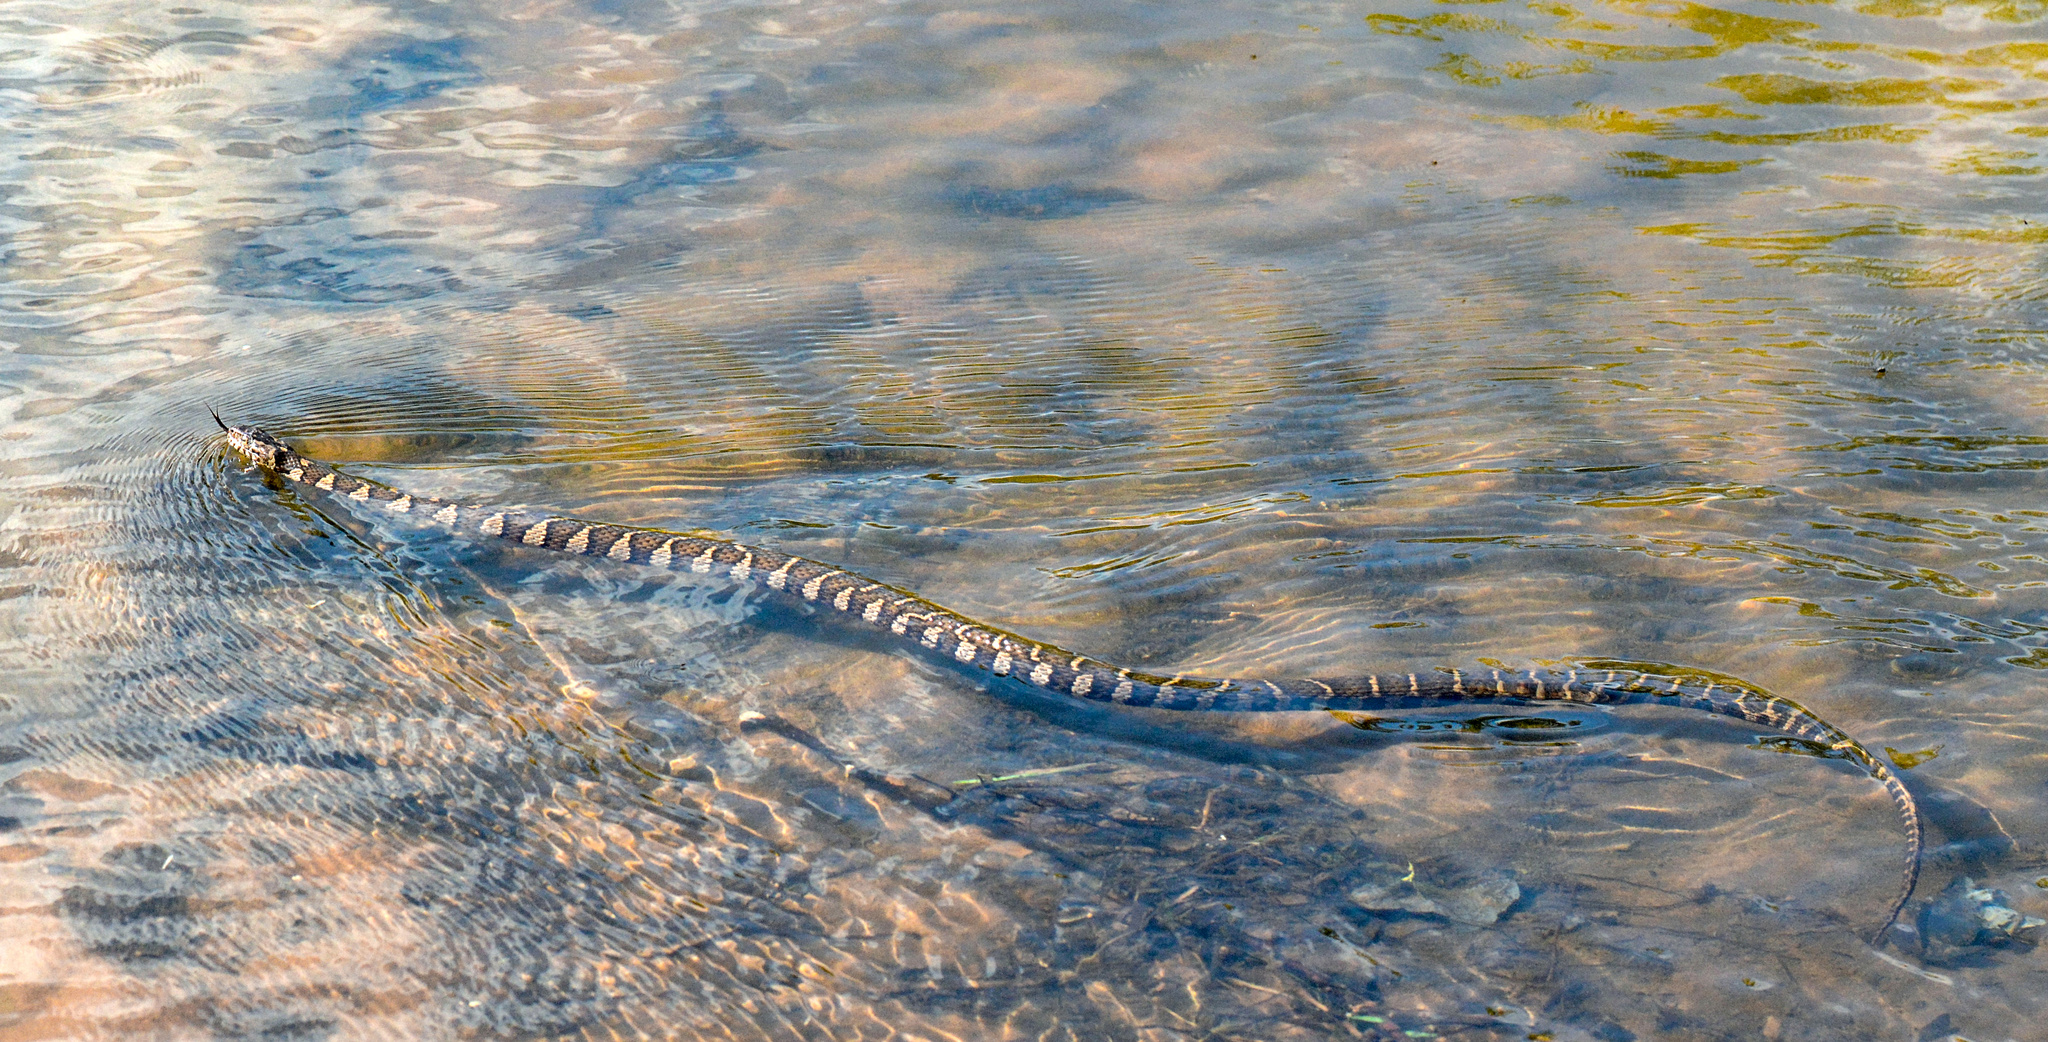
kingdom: Animalia
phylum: Chordata
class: Squamata
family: Colubridae
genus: Nerodia
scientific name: Nerodia sipedon
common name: Northern water snake
